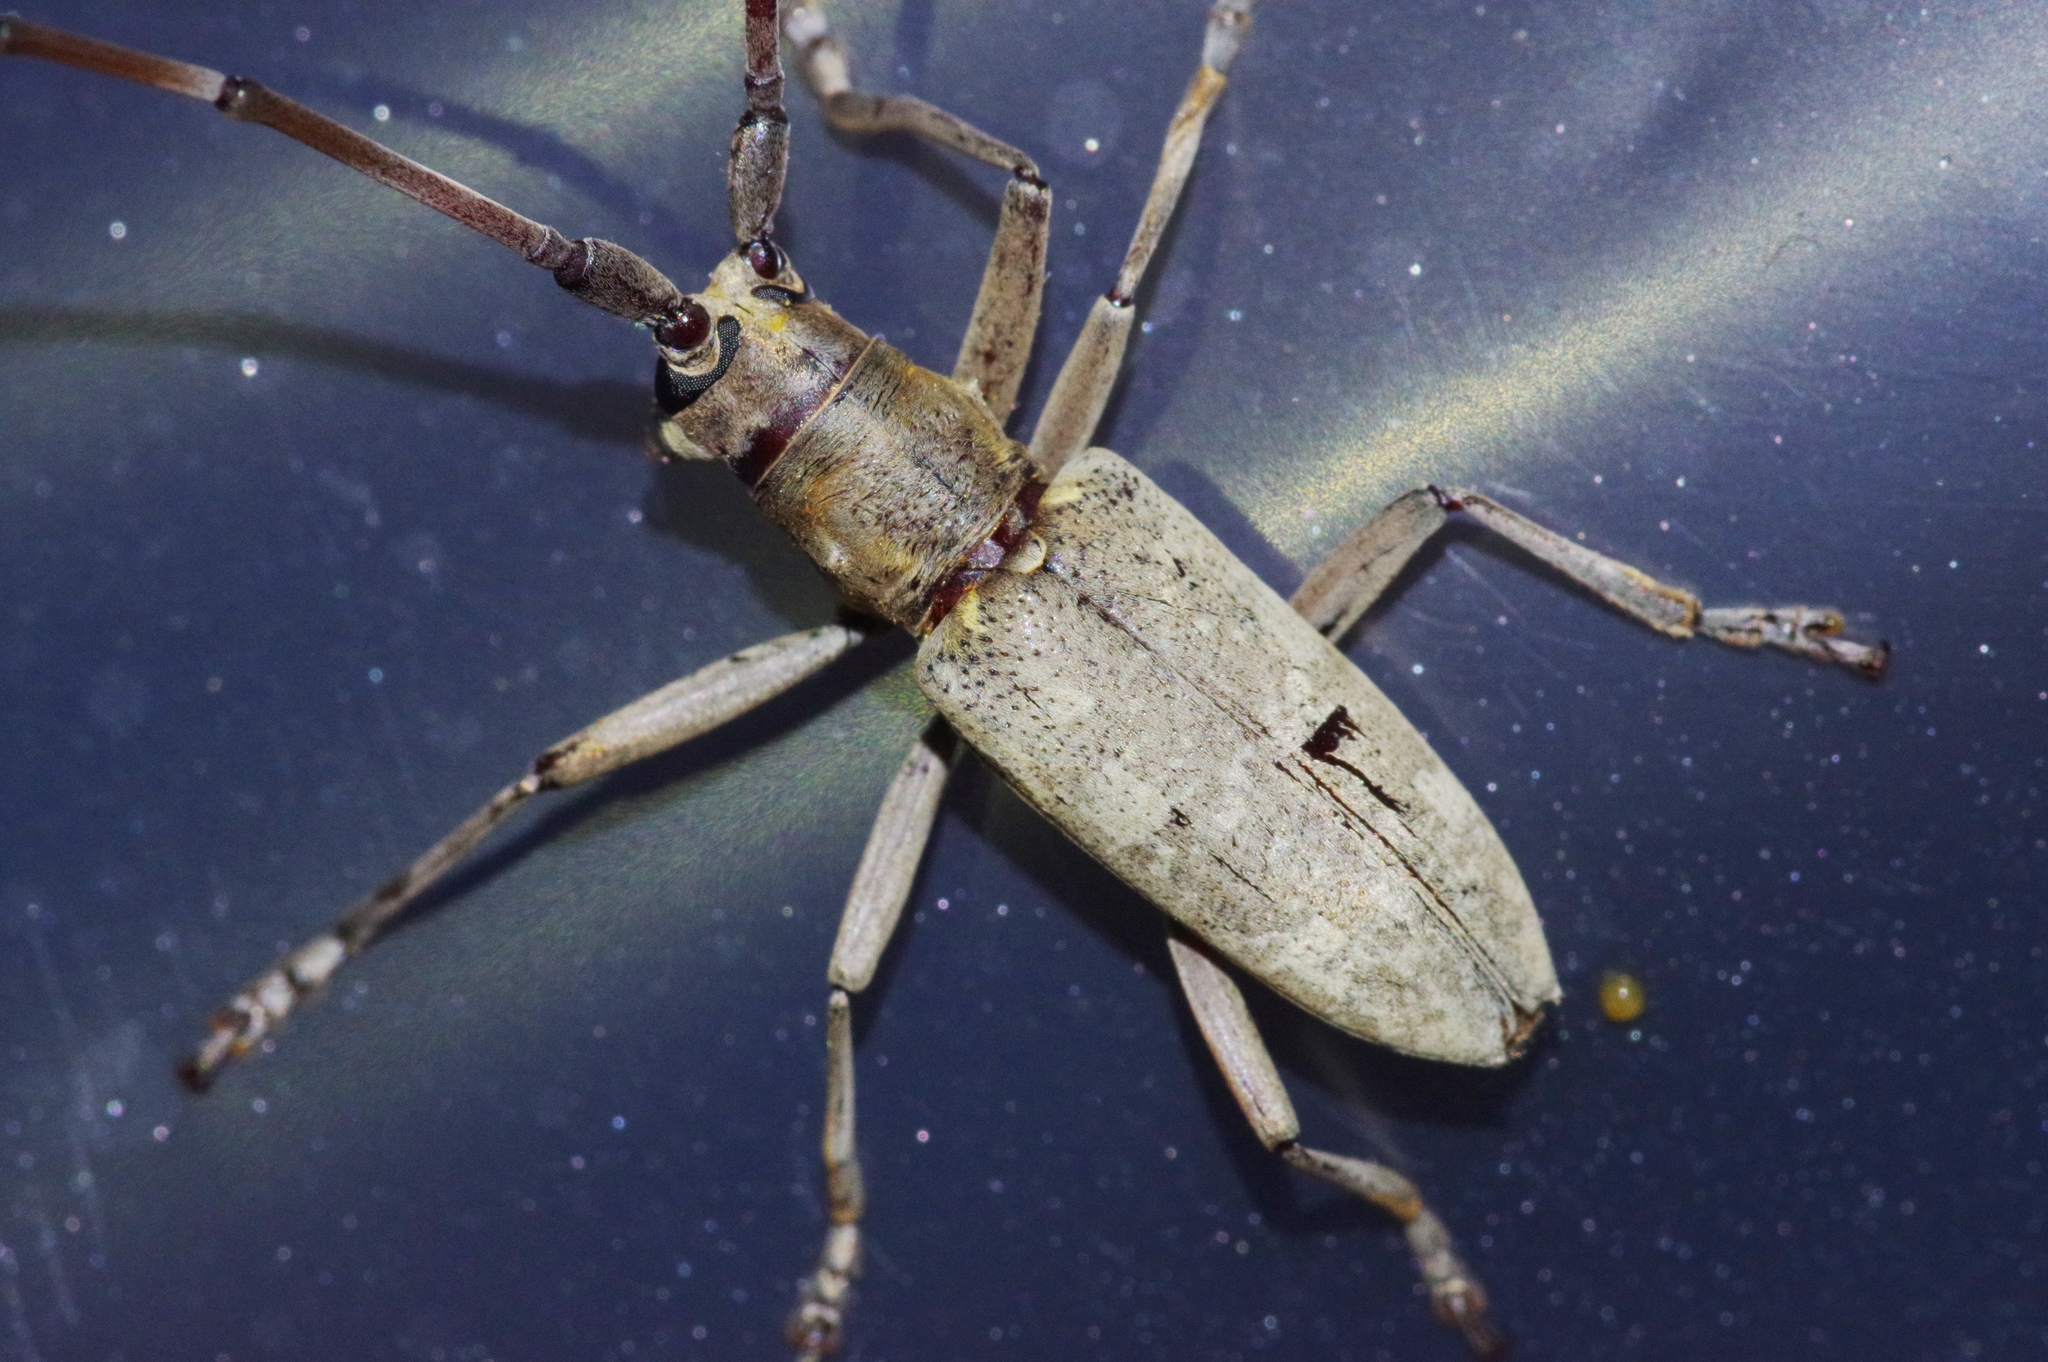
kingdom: Animalia
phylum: Arthropoda
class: Insecta
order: Coleoptera
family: Cerambycidae
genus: Psacothea
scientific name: Psacothea hilaris
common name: Yellow-spotted longicorn beetle
